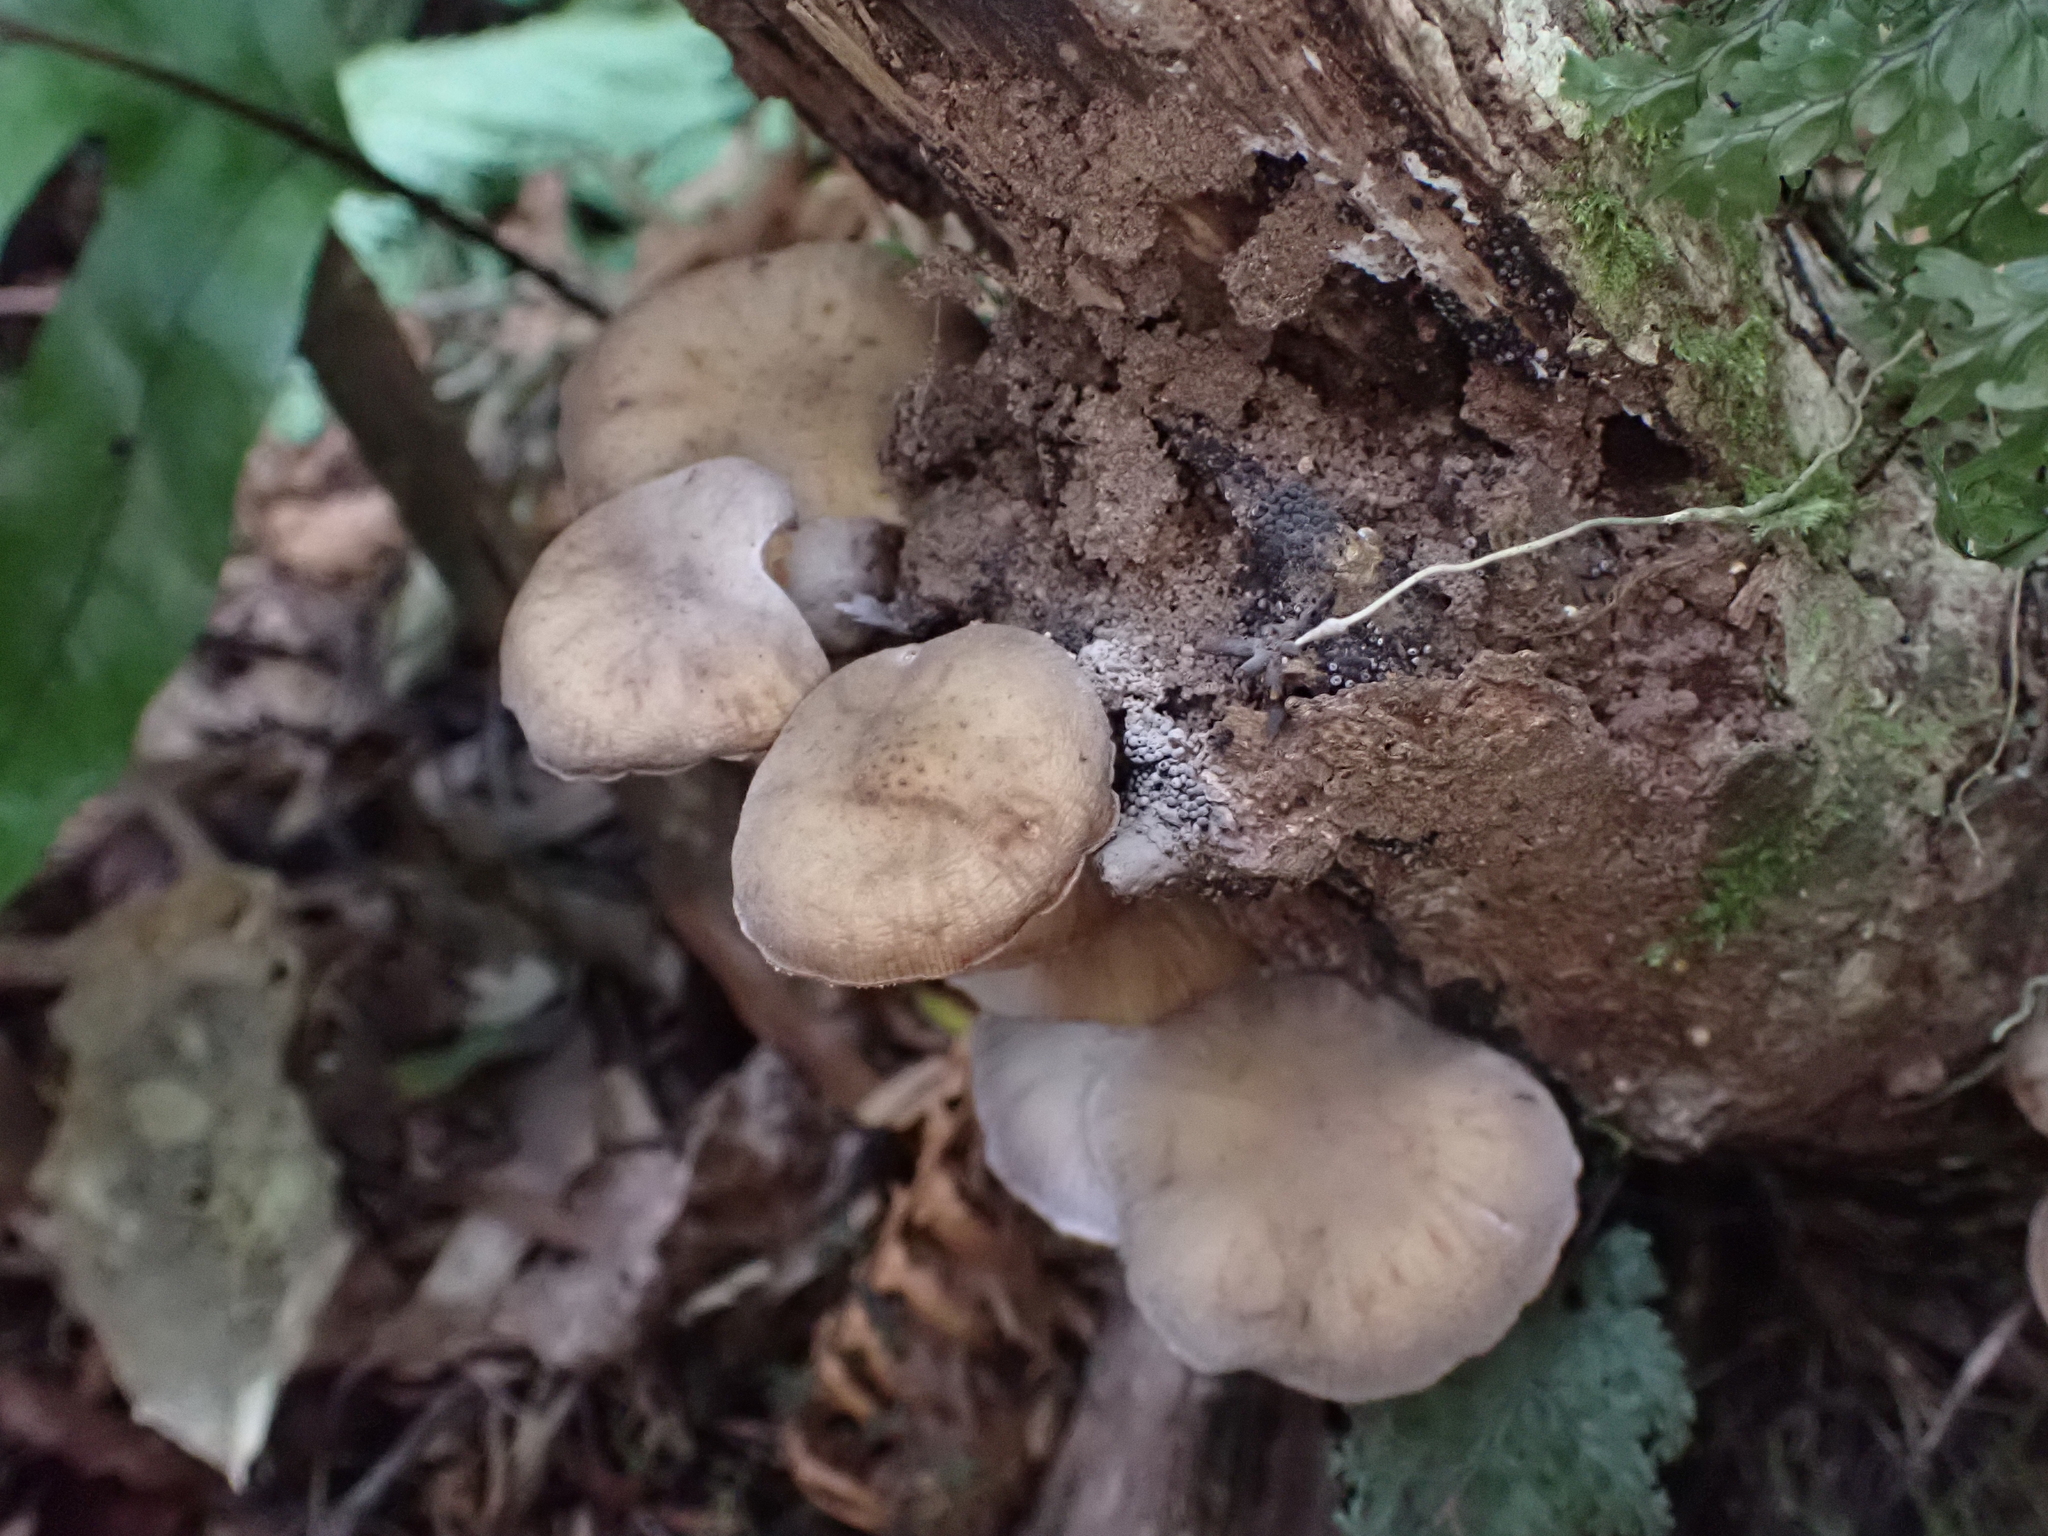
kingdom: Fungi
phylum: Basidiomycota
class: Agaricomycetes
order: Agaricales
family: Physalacriaceae
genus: Armillaria
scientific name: Armillaria novae-zelandiae
